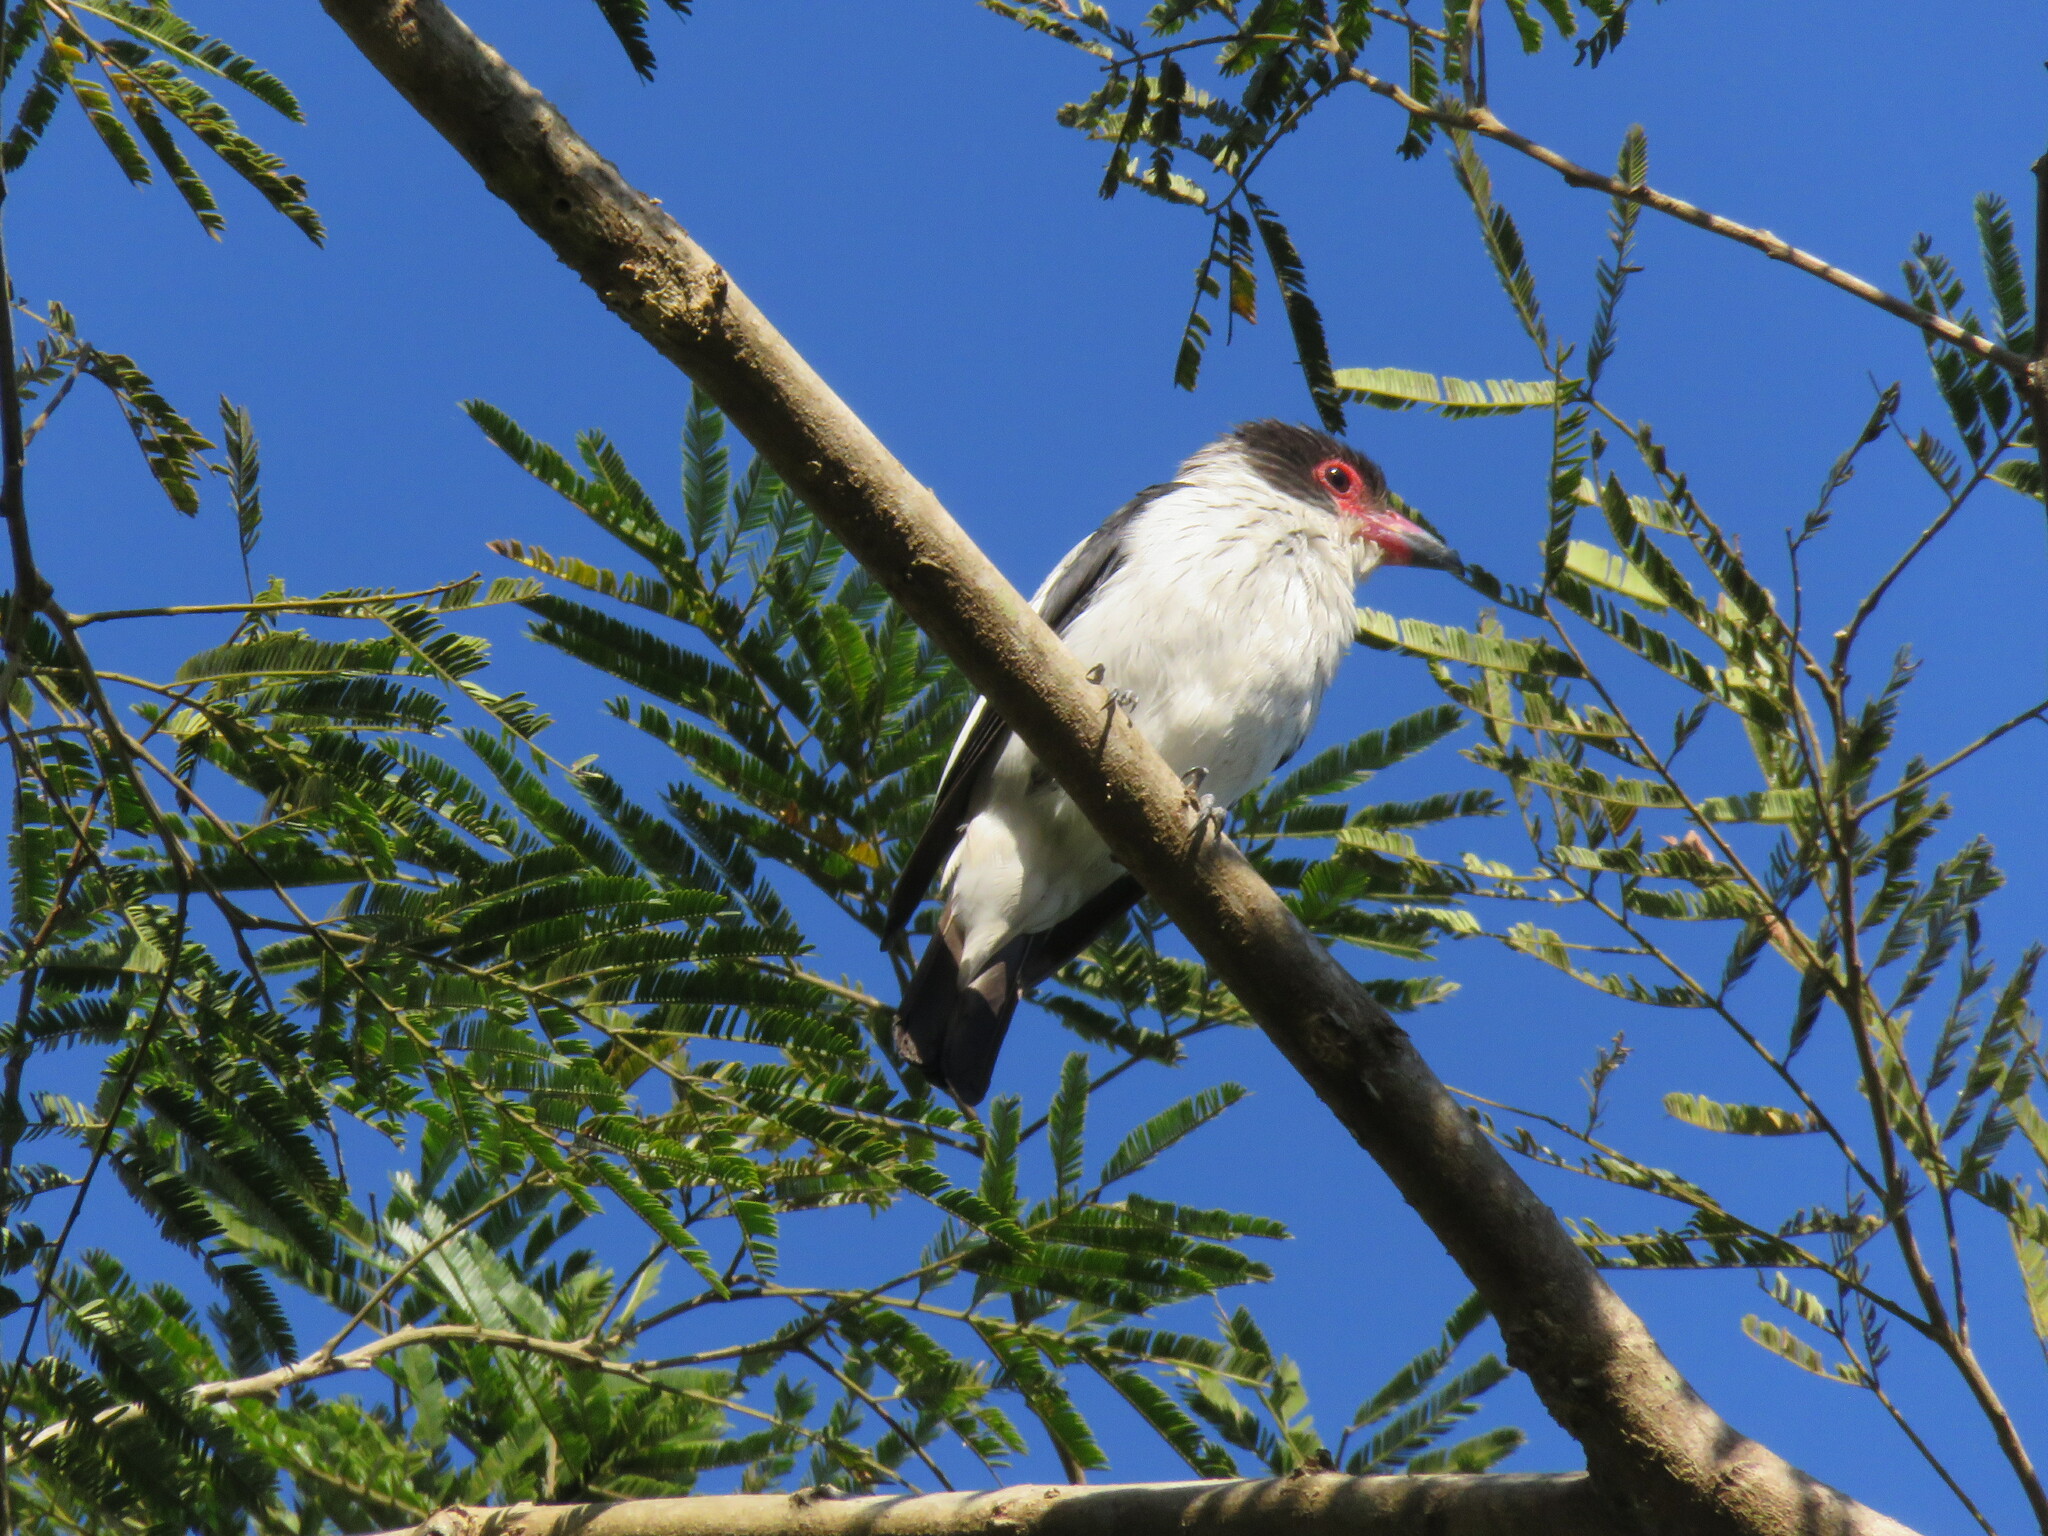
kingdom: Animalia
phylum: Chordata
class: Aves
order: Passeriformes
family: Cotingidae
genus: Tityra
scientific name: Tityra cayana
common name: Black-tailed tityra
